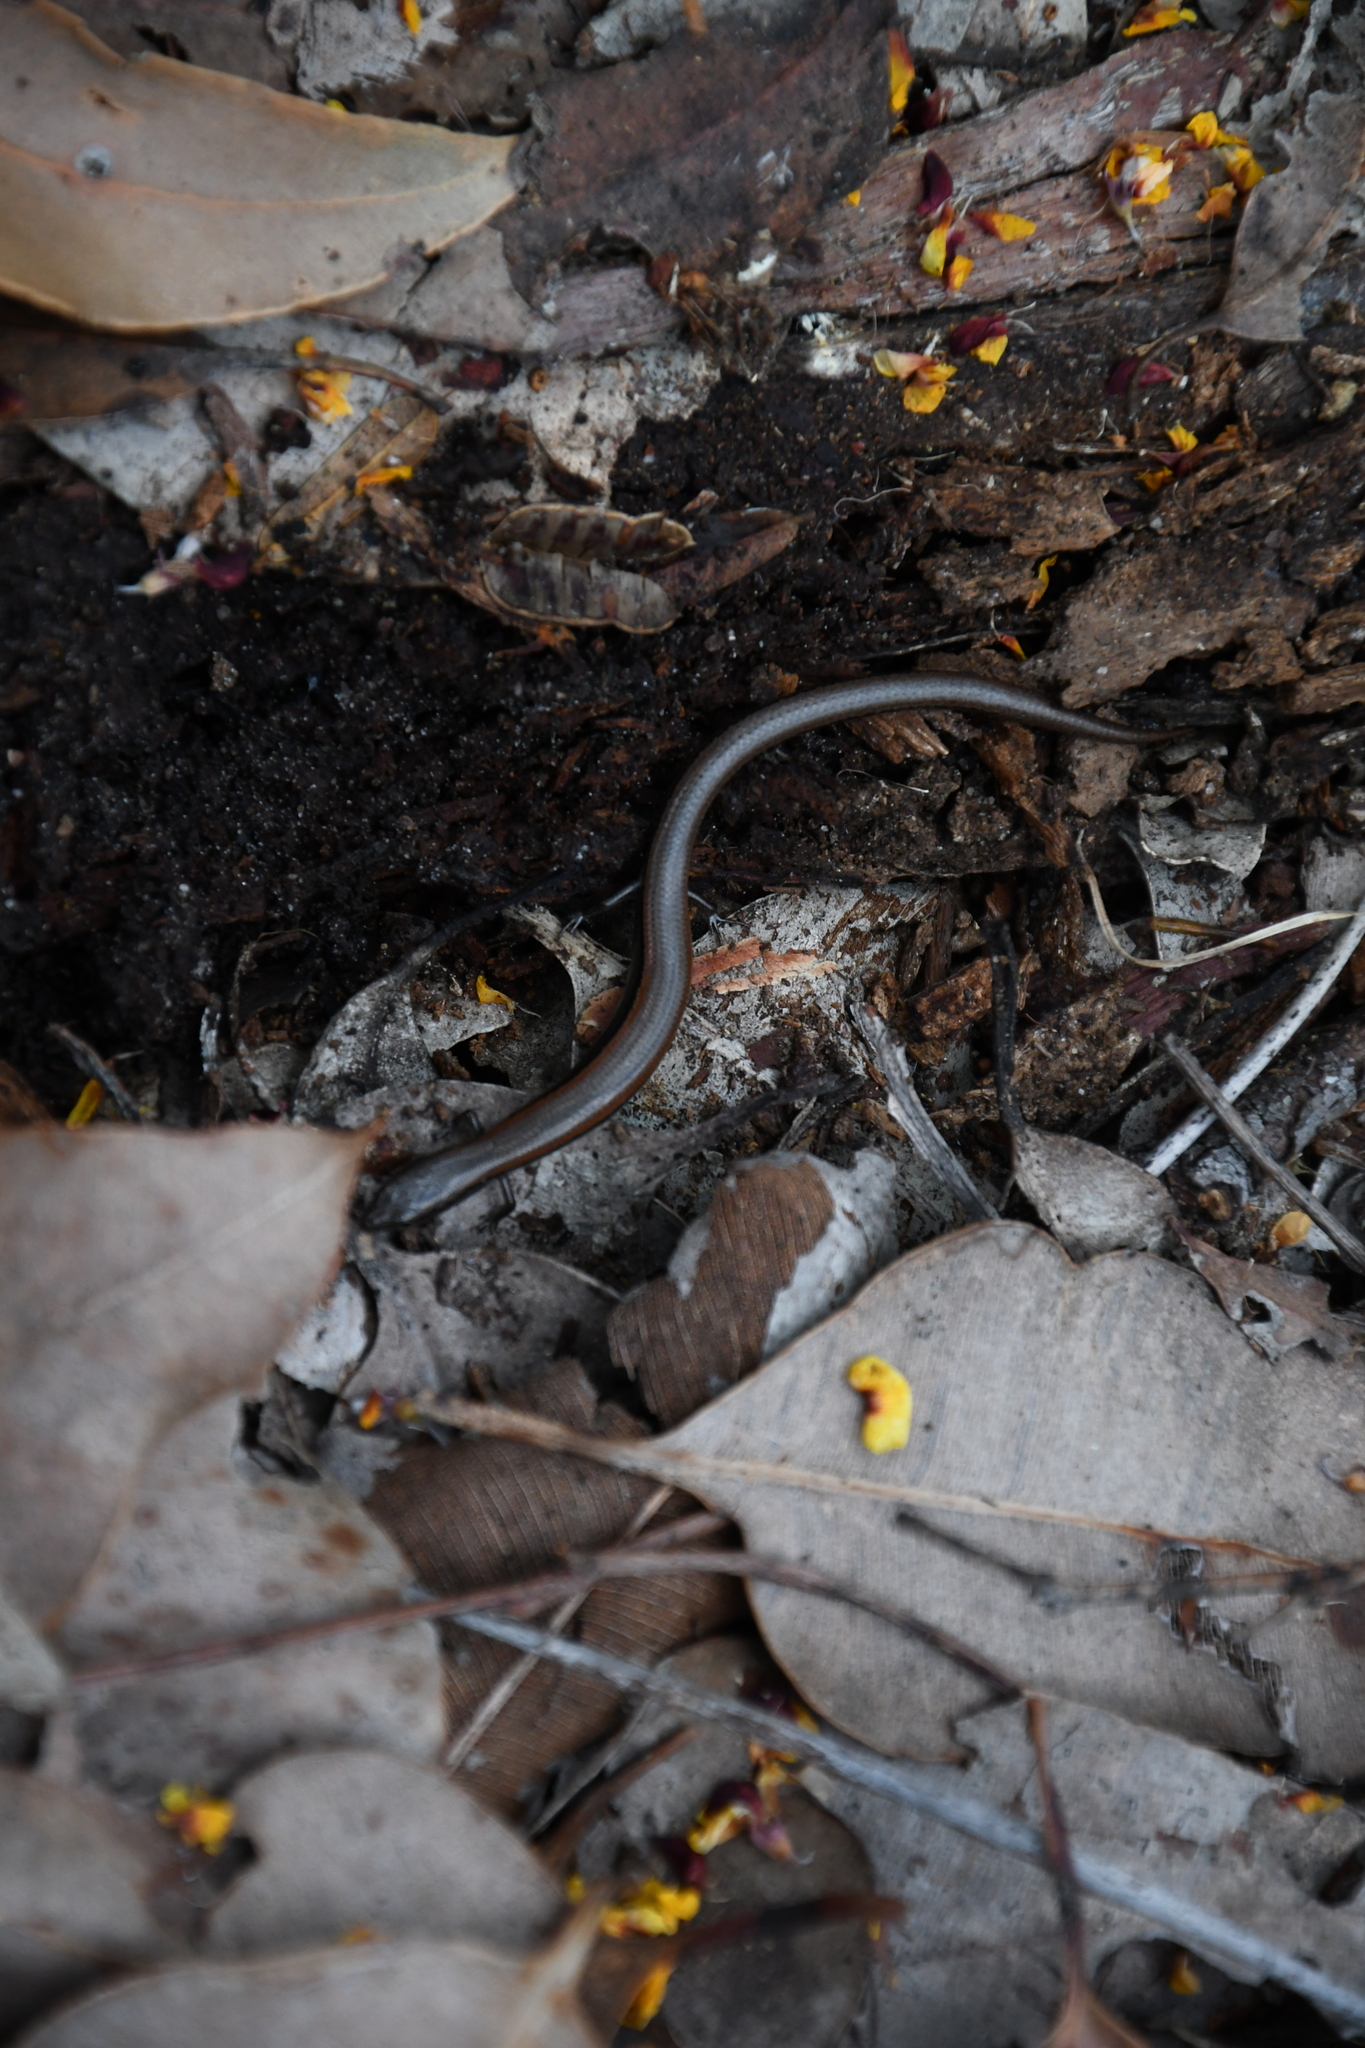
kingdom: Animalia
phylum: Chordata
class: Squamata
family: Scincidae
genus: Hemiergis
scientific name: Hemiergis peronii
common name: Lowlands earless skink
